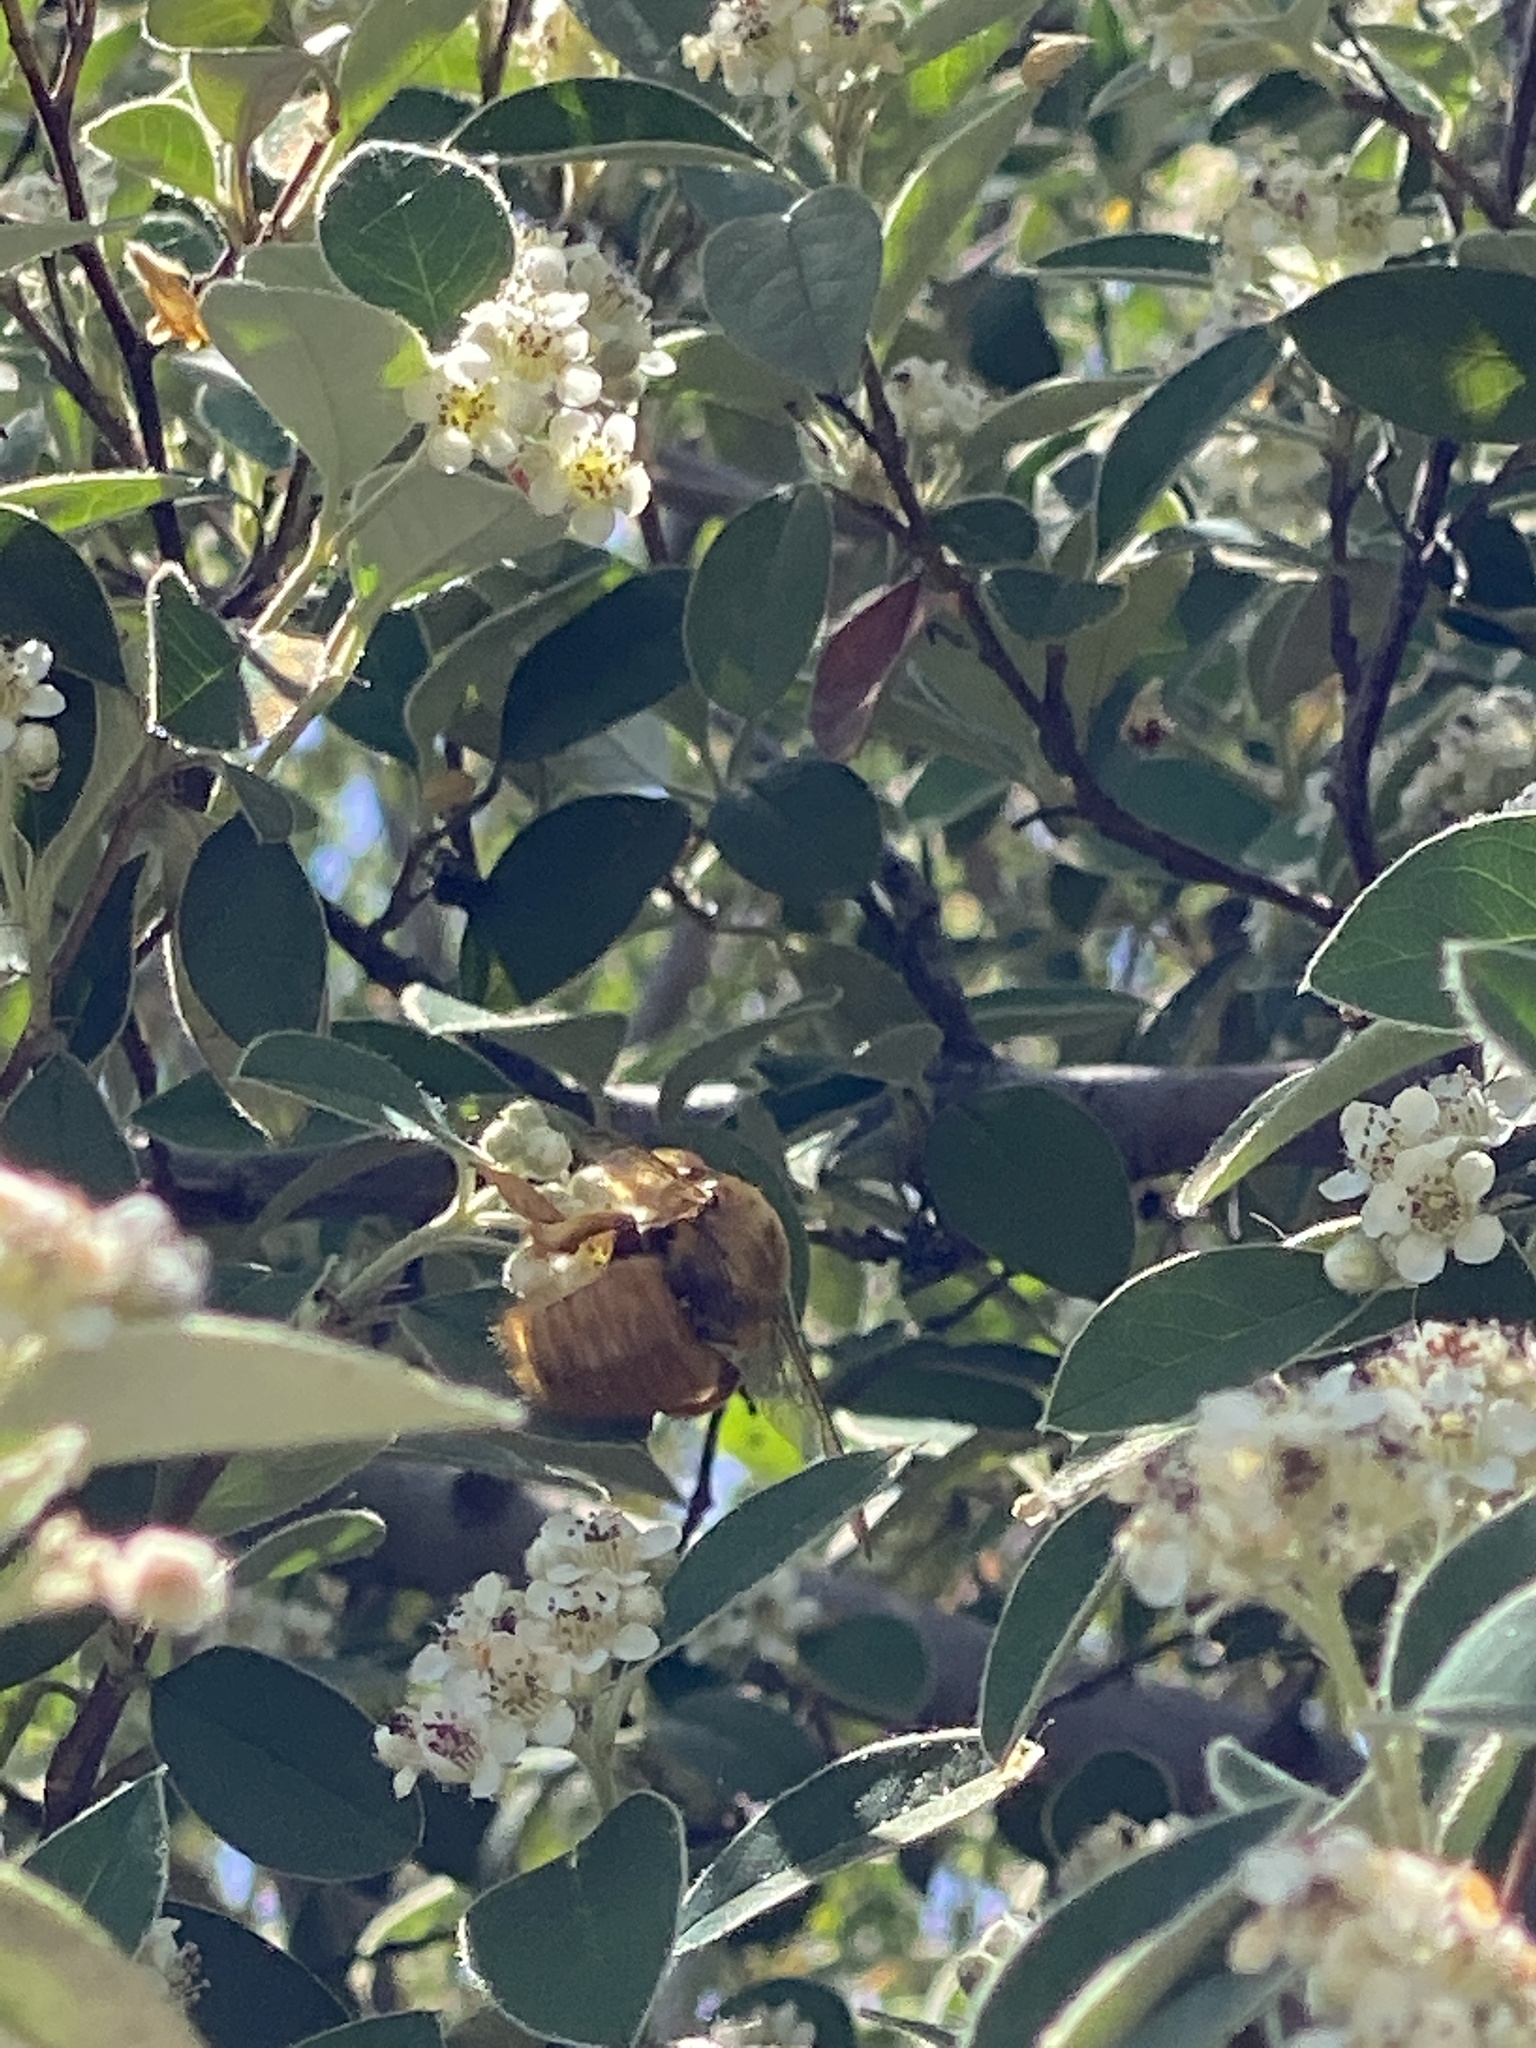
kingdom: Animalia
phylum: Arthropoda
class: Insecta
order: Hymenoptera
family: Apidae
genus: Xylocopa
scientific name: Xylocopa sonorina
